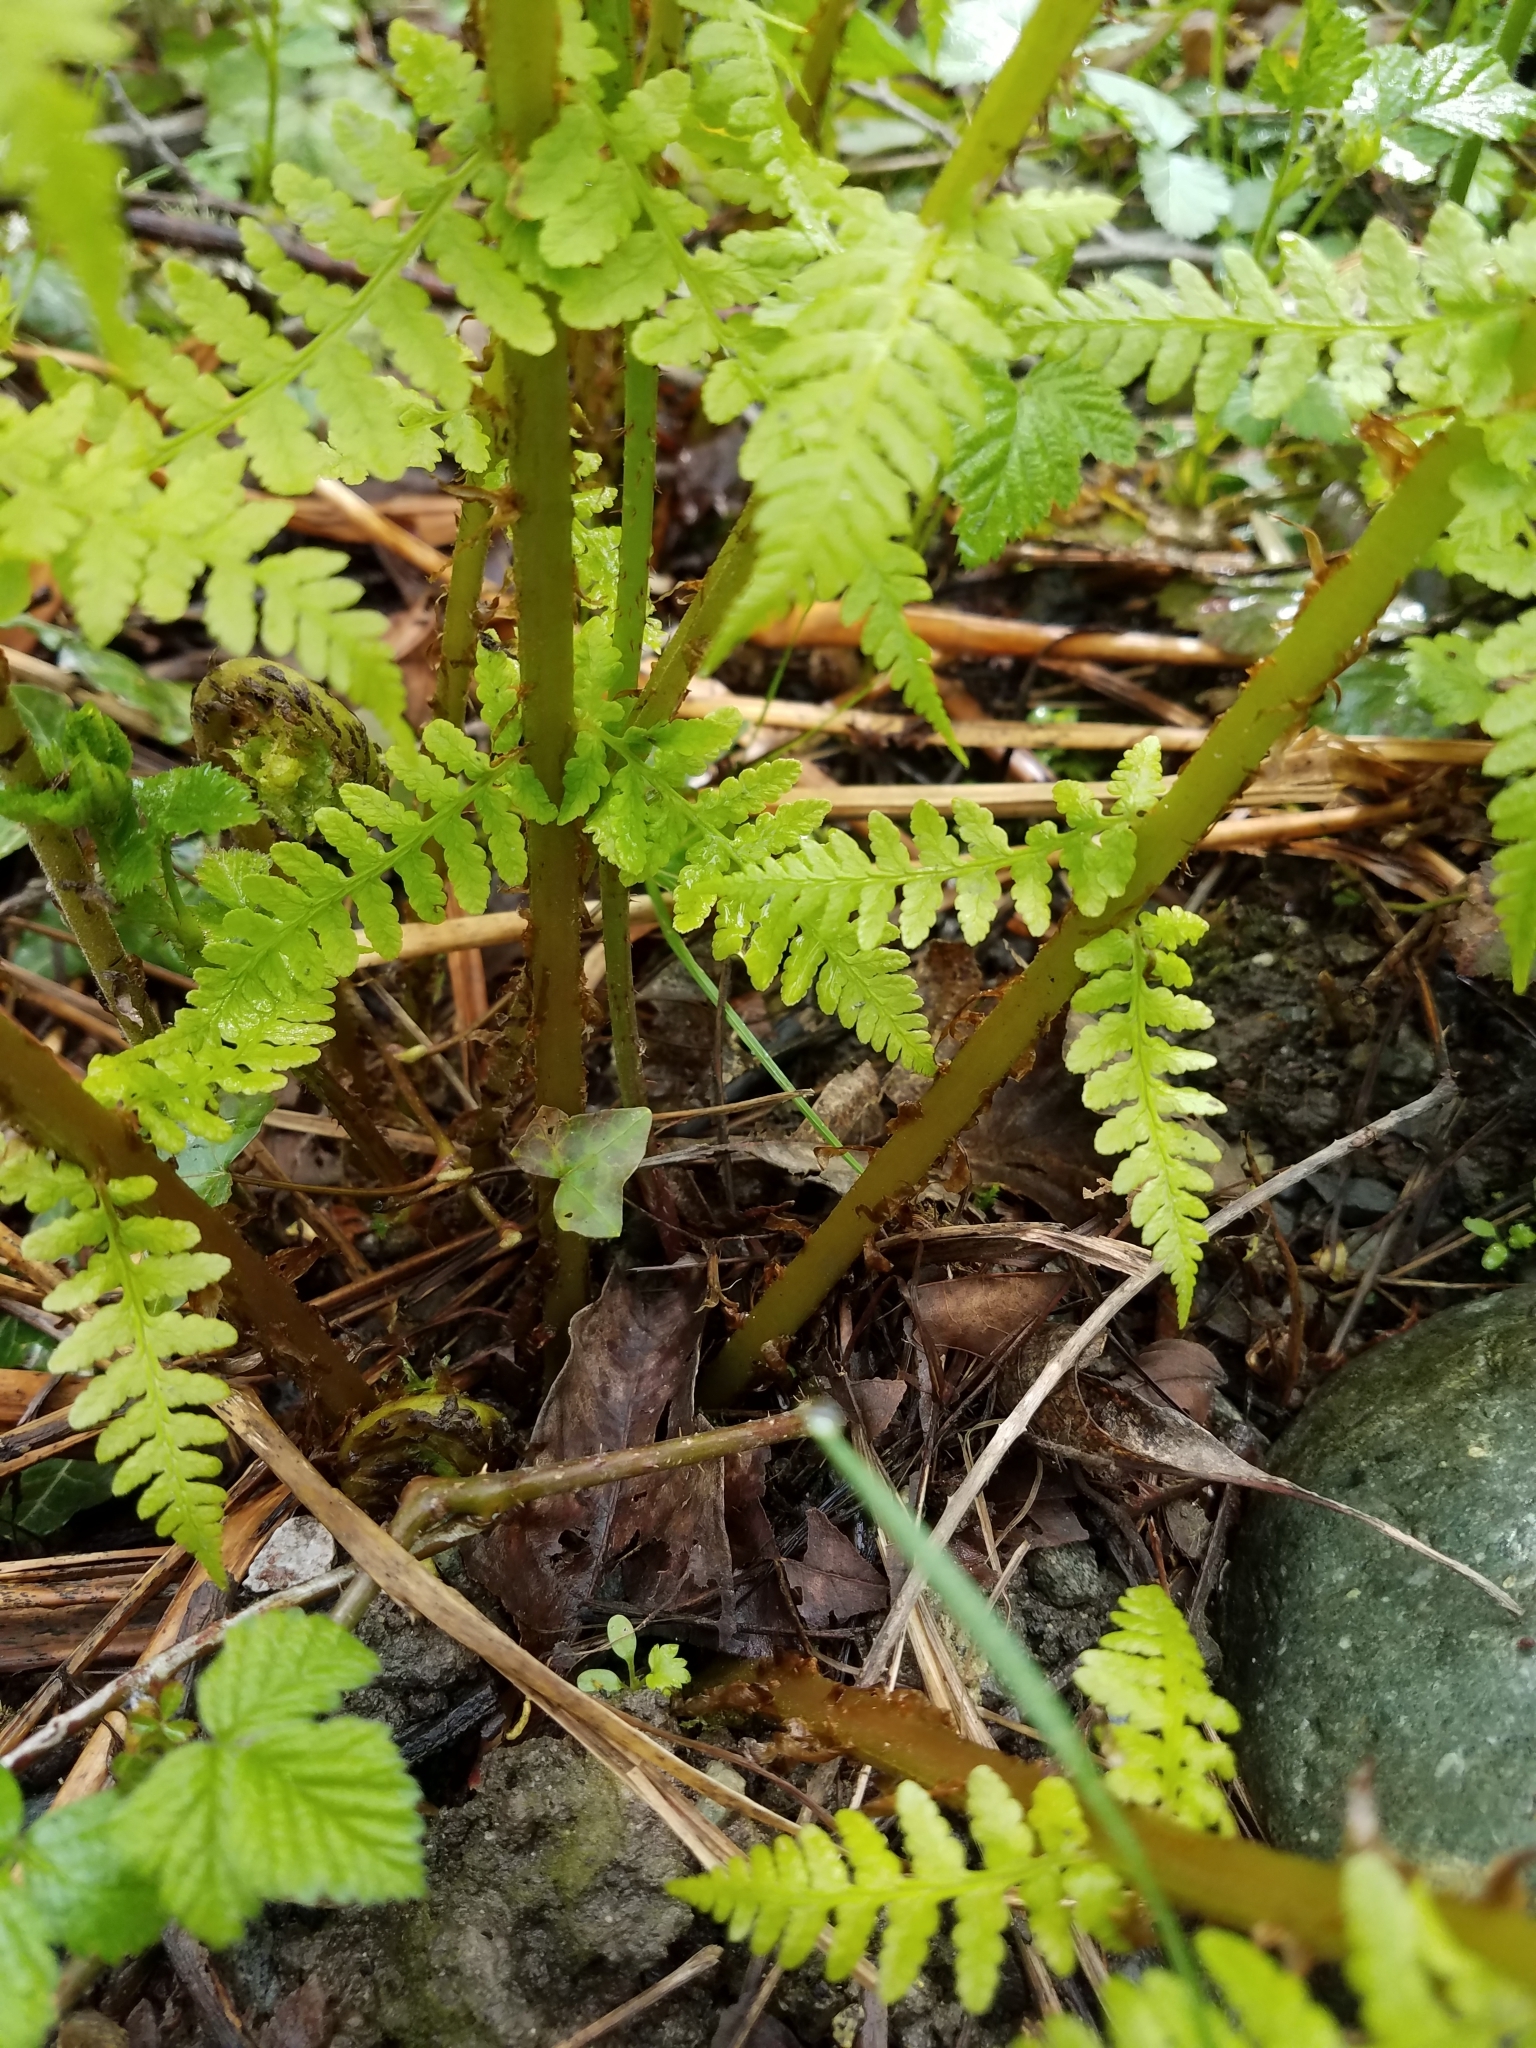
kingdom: Plantae
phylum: Tracheophyta
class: Polypodiopsida
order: Polypodiales
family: Athyriaceae
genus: Athyrium
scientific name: Athyrium filix-femina
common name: Lady fern
